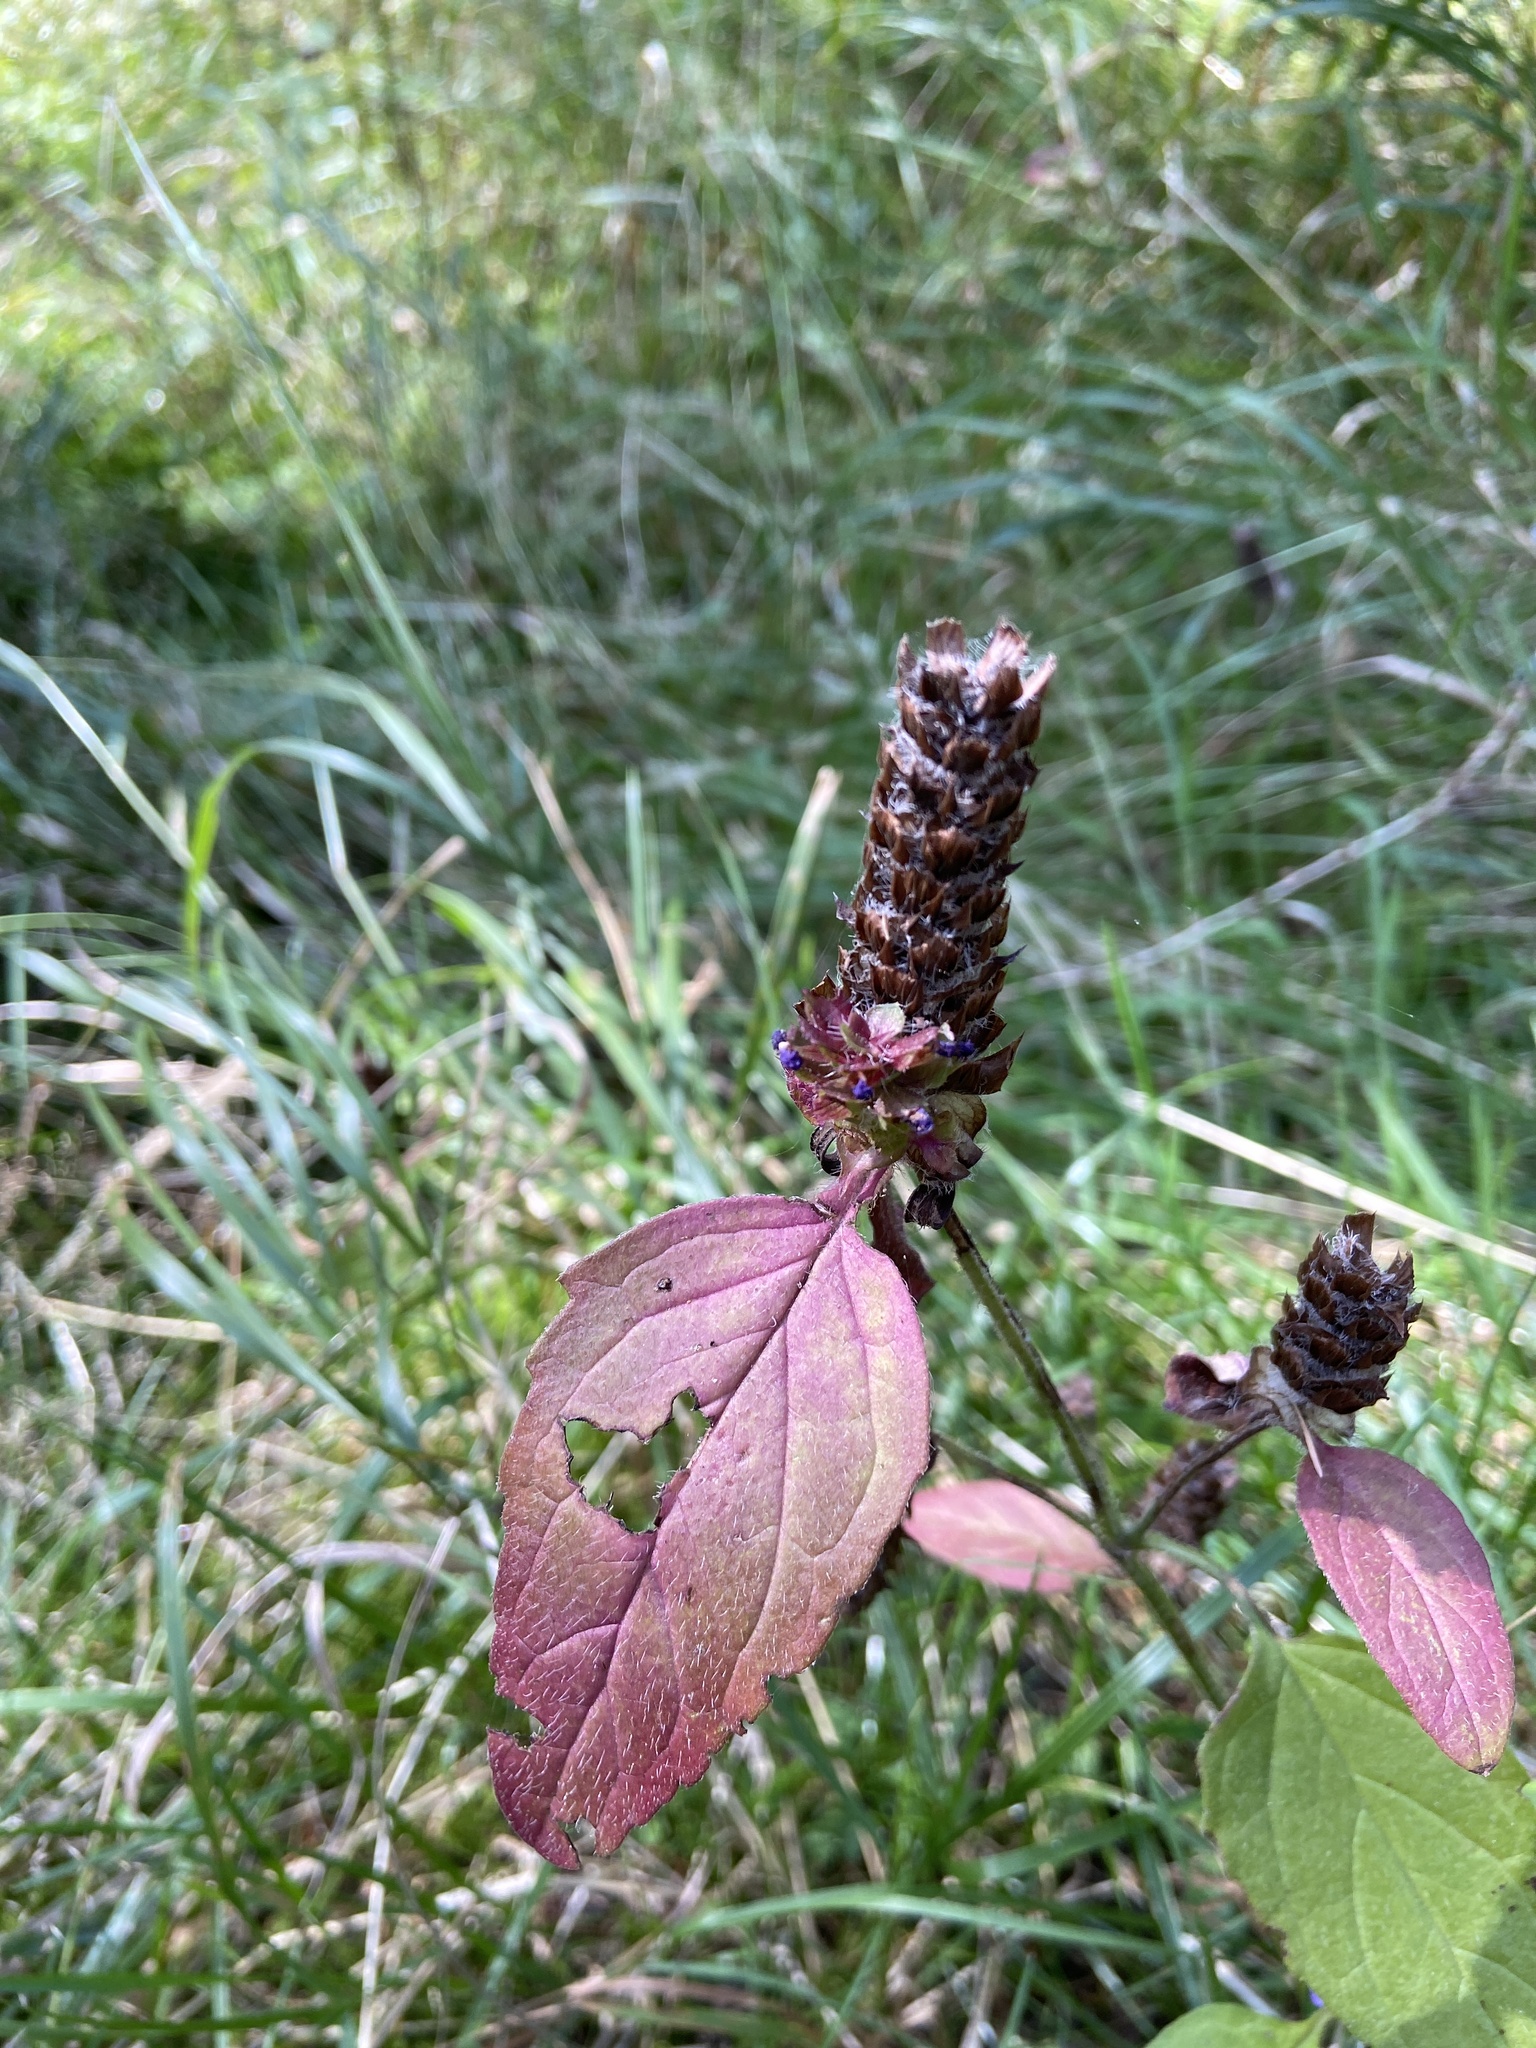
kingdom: Plantae
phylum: Tracheophyta
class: Magnoliopsida
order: Lamiales
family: Lamiaceae
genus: Prunella
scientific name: Prunella vulgaris
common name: Heal-all
